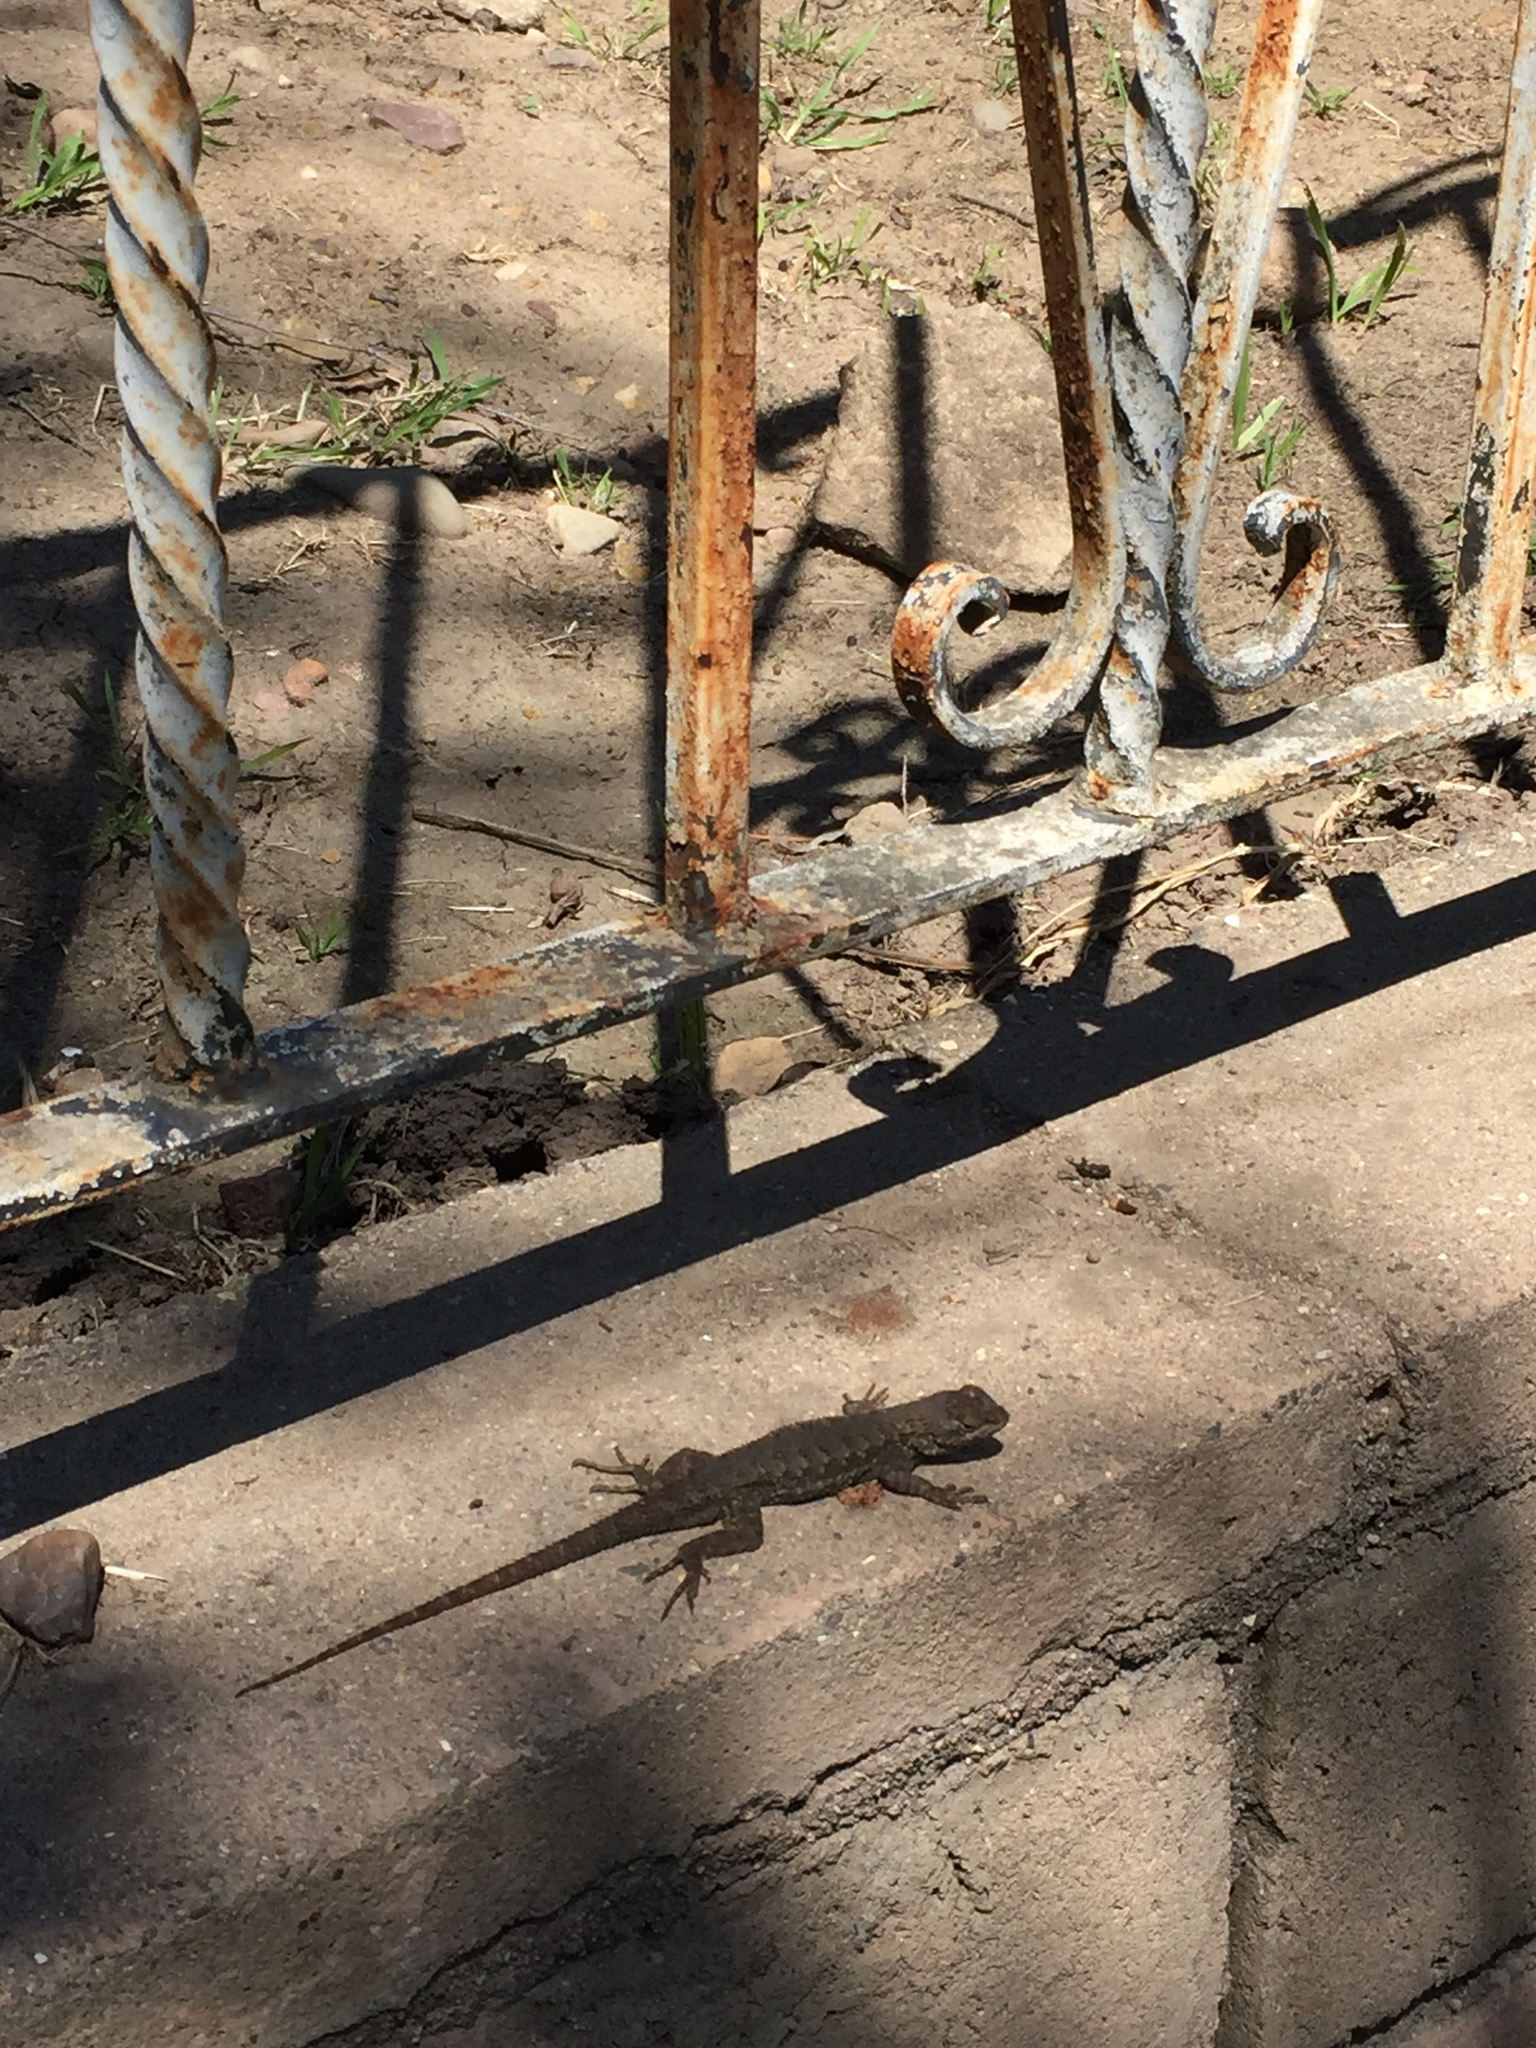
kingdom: Animalia
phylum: Chordata
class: Squamata
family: Phrynosomatidae
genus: Sceloporus
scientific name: Sceloporus occidentalis
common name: Western fence lizard
